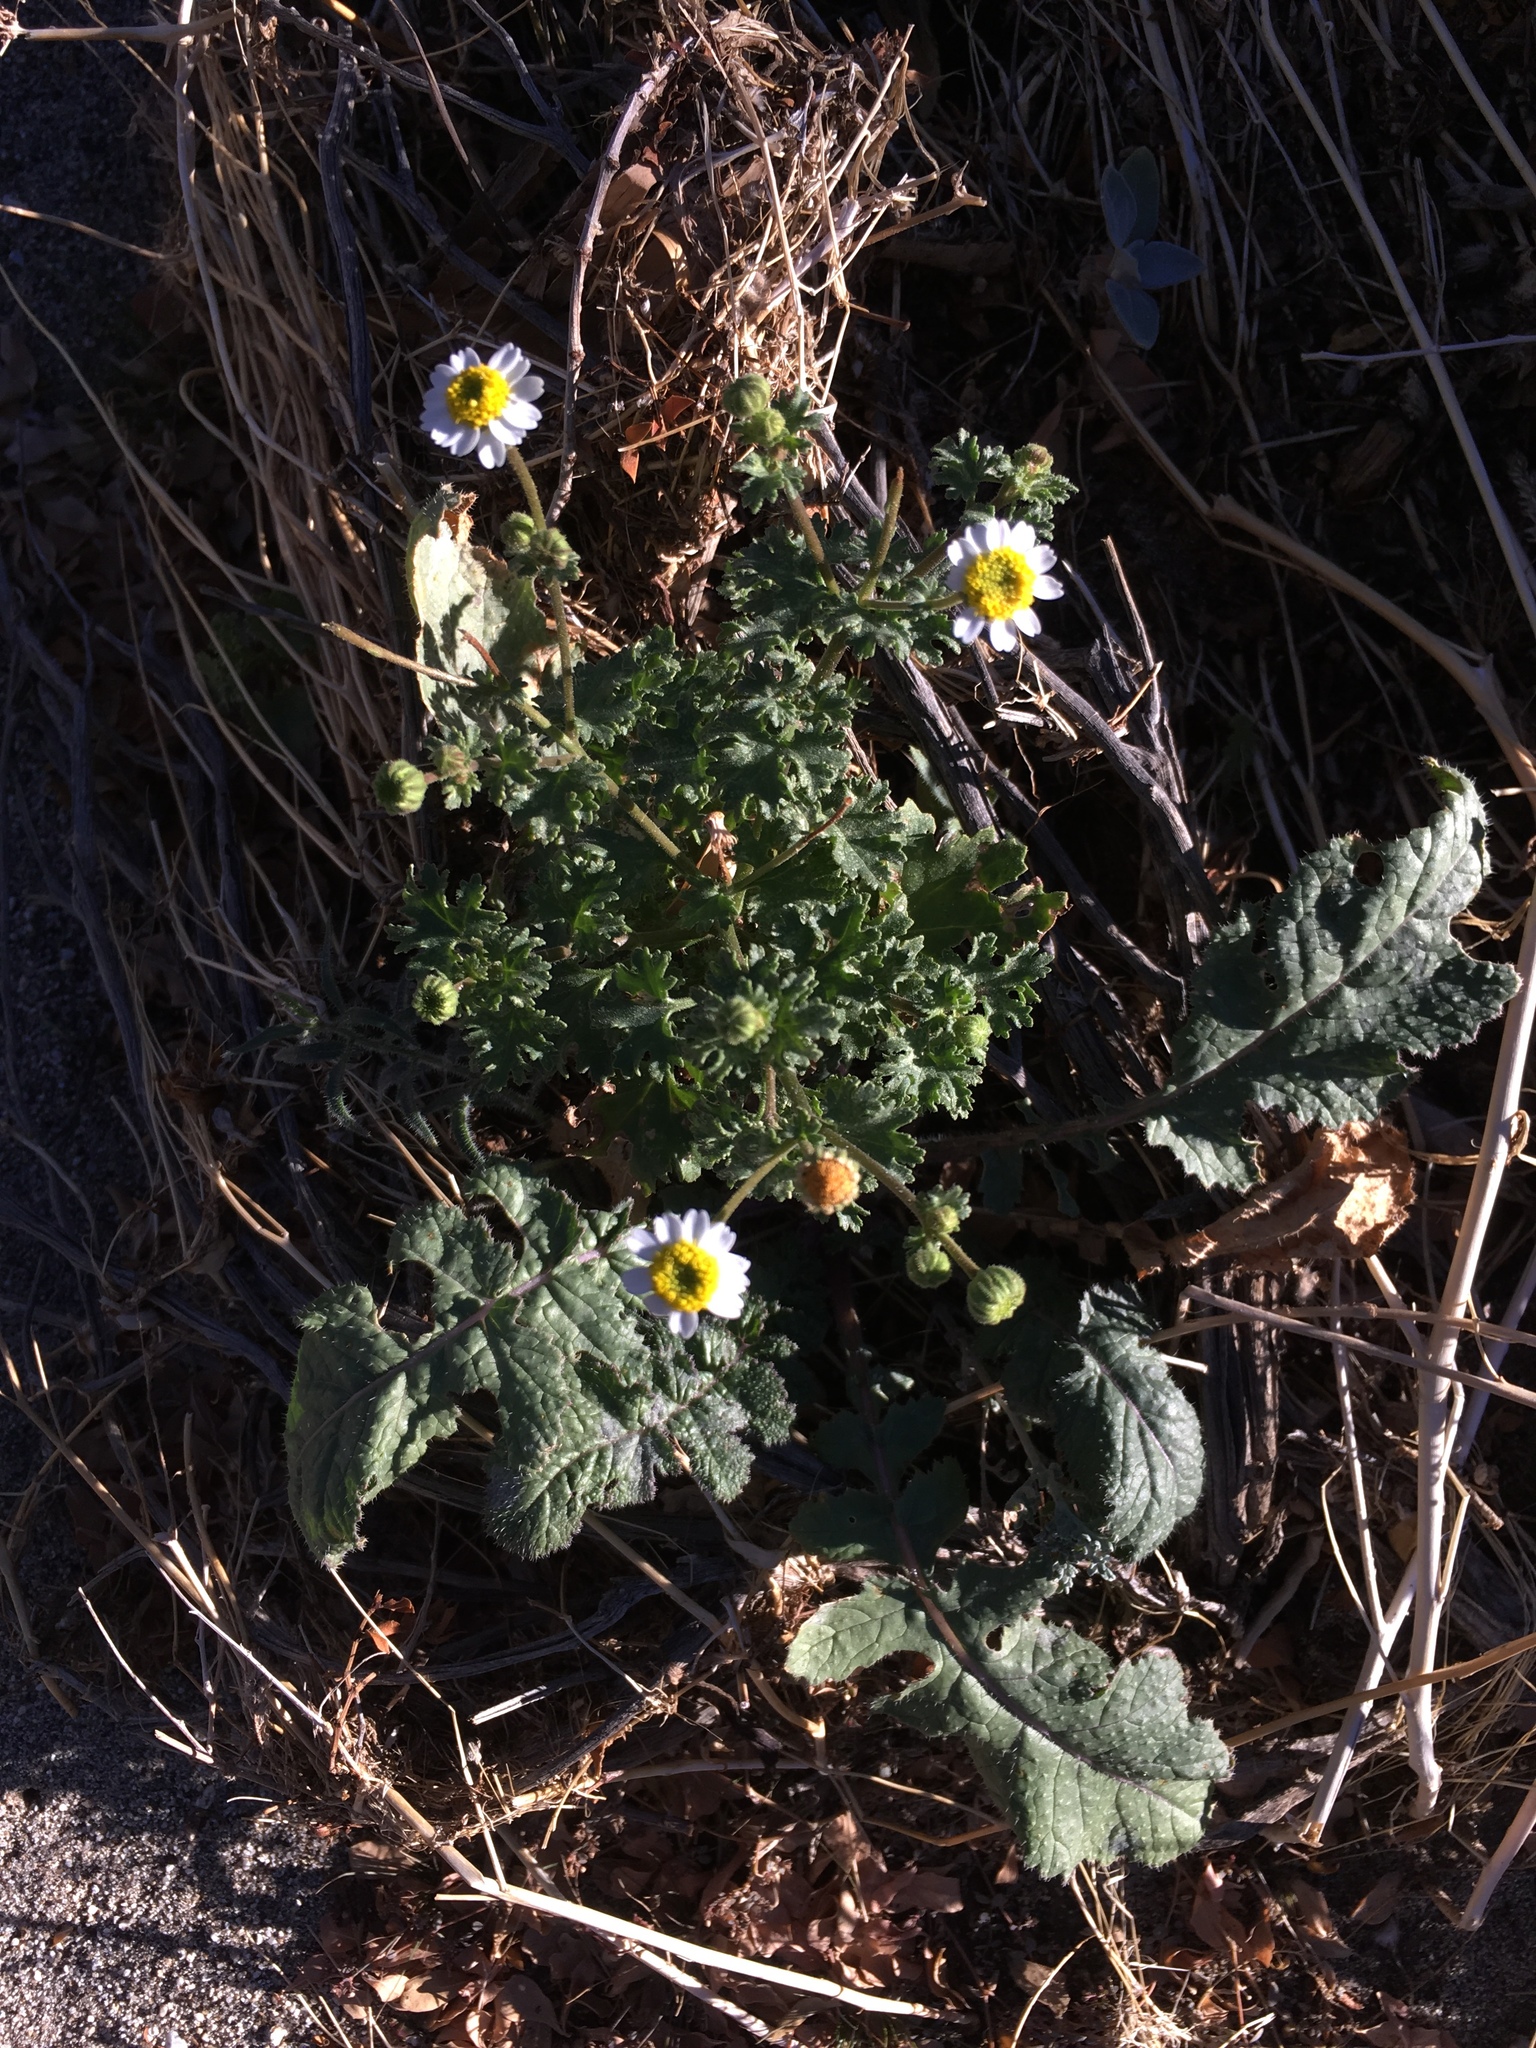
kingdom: Plantae
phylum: Tracheophyta
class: Magnoliopsida
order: Asterales
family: Asteraceae
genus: Laphamia
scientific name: Laphamia emoryi
